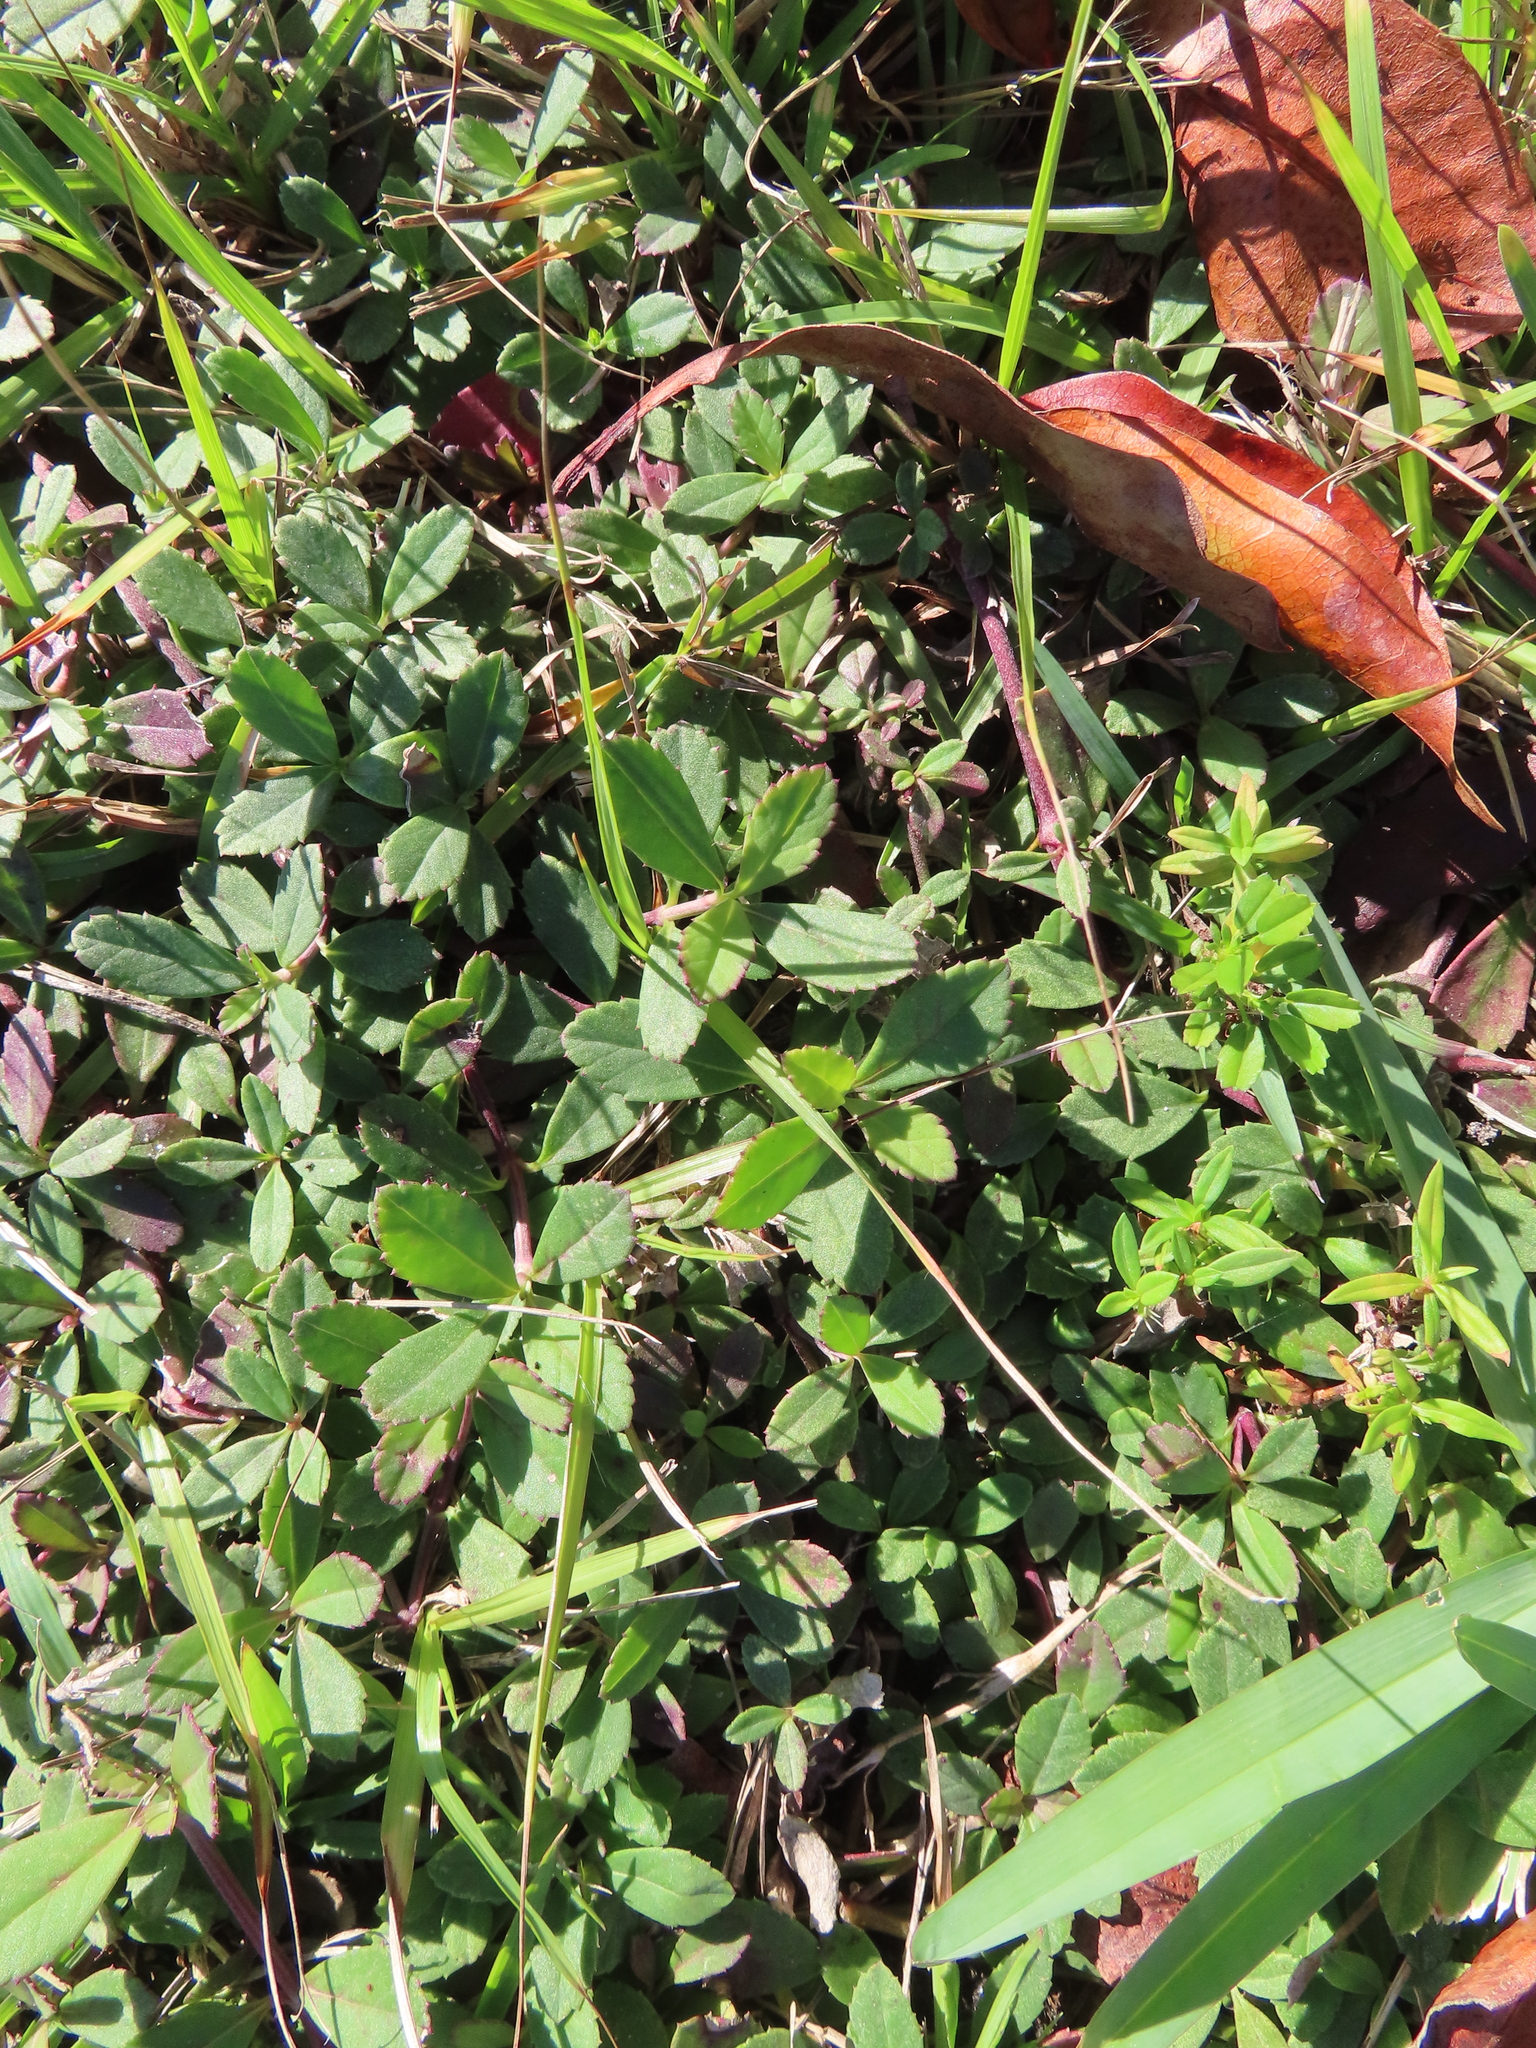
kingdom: Plantae
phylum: Tracheophyta
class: Magnoliopsida
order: Lamiales
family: Verbenaceae
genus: Phyla
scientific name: Phyla nodiflora
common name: Frogfruit
